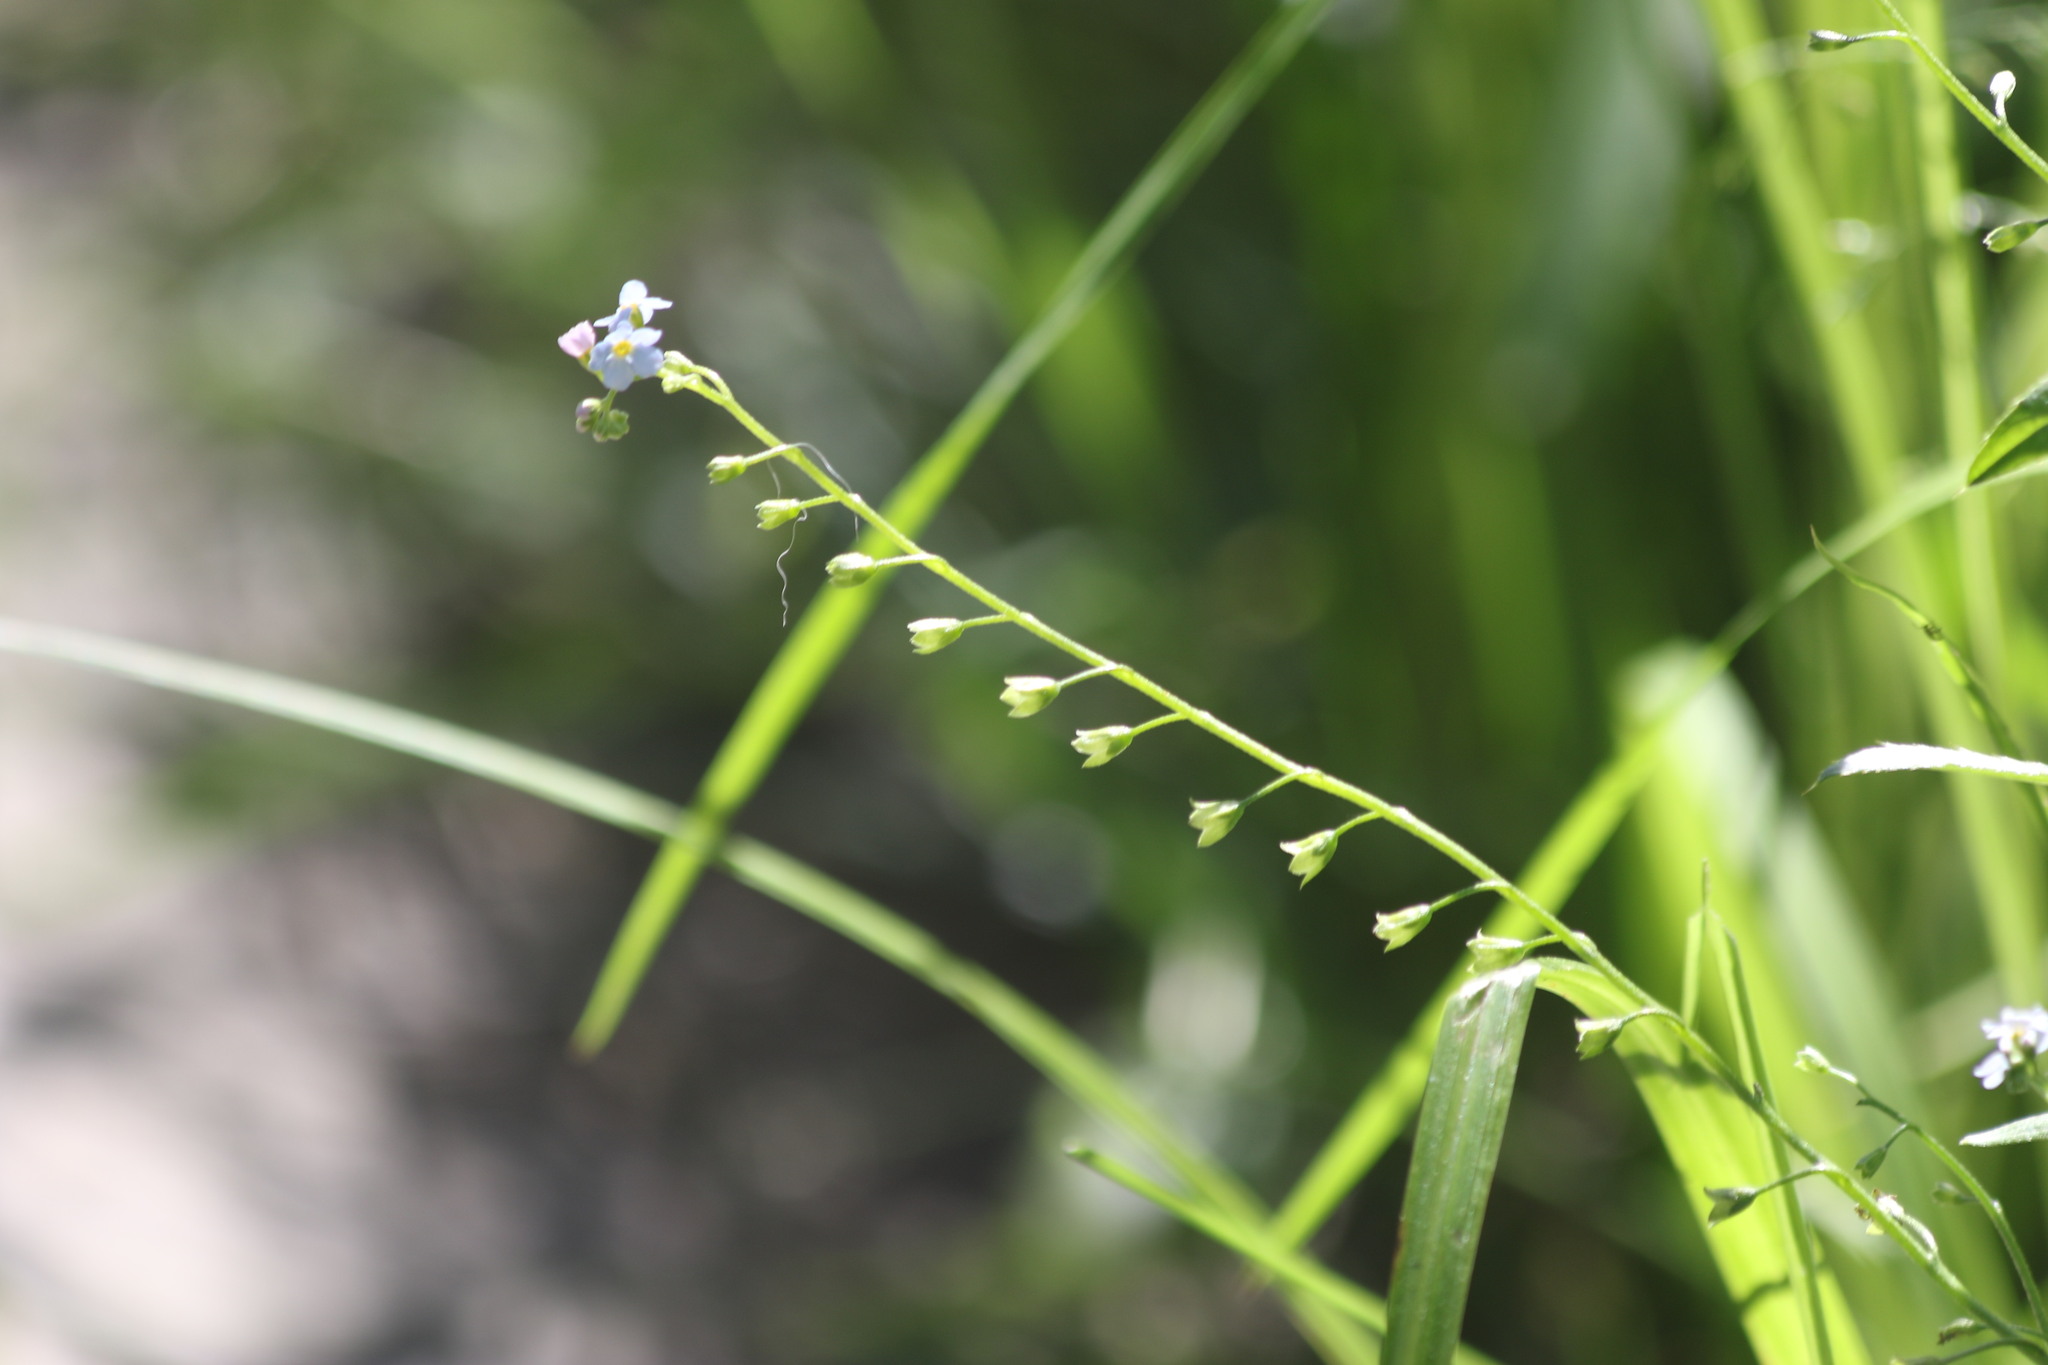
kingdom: Plantae
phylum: Tracheophyta
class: Magnoliopsida
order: Boraginales
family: Boraginaceae
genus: Myosotis
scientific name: Myosotis scorpioides
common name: Water forget-me-not
